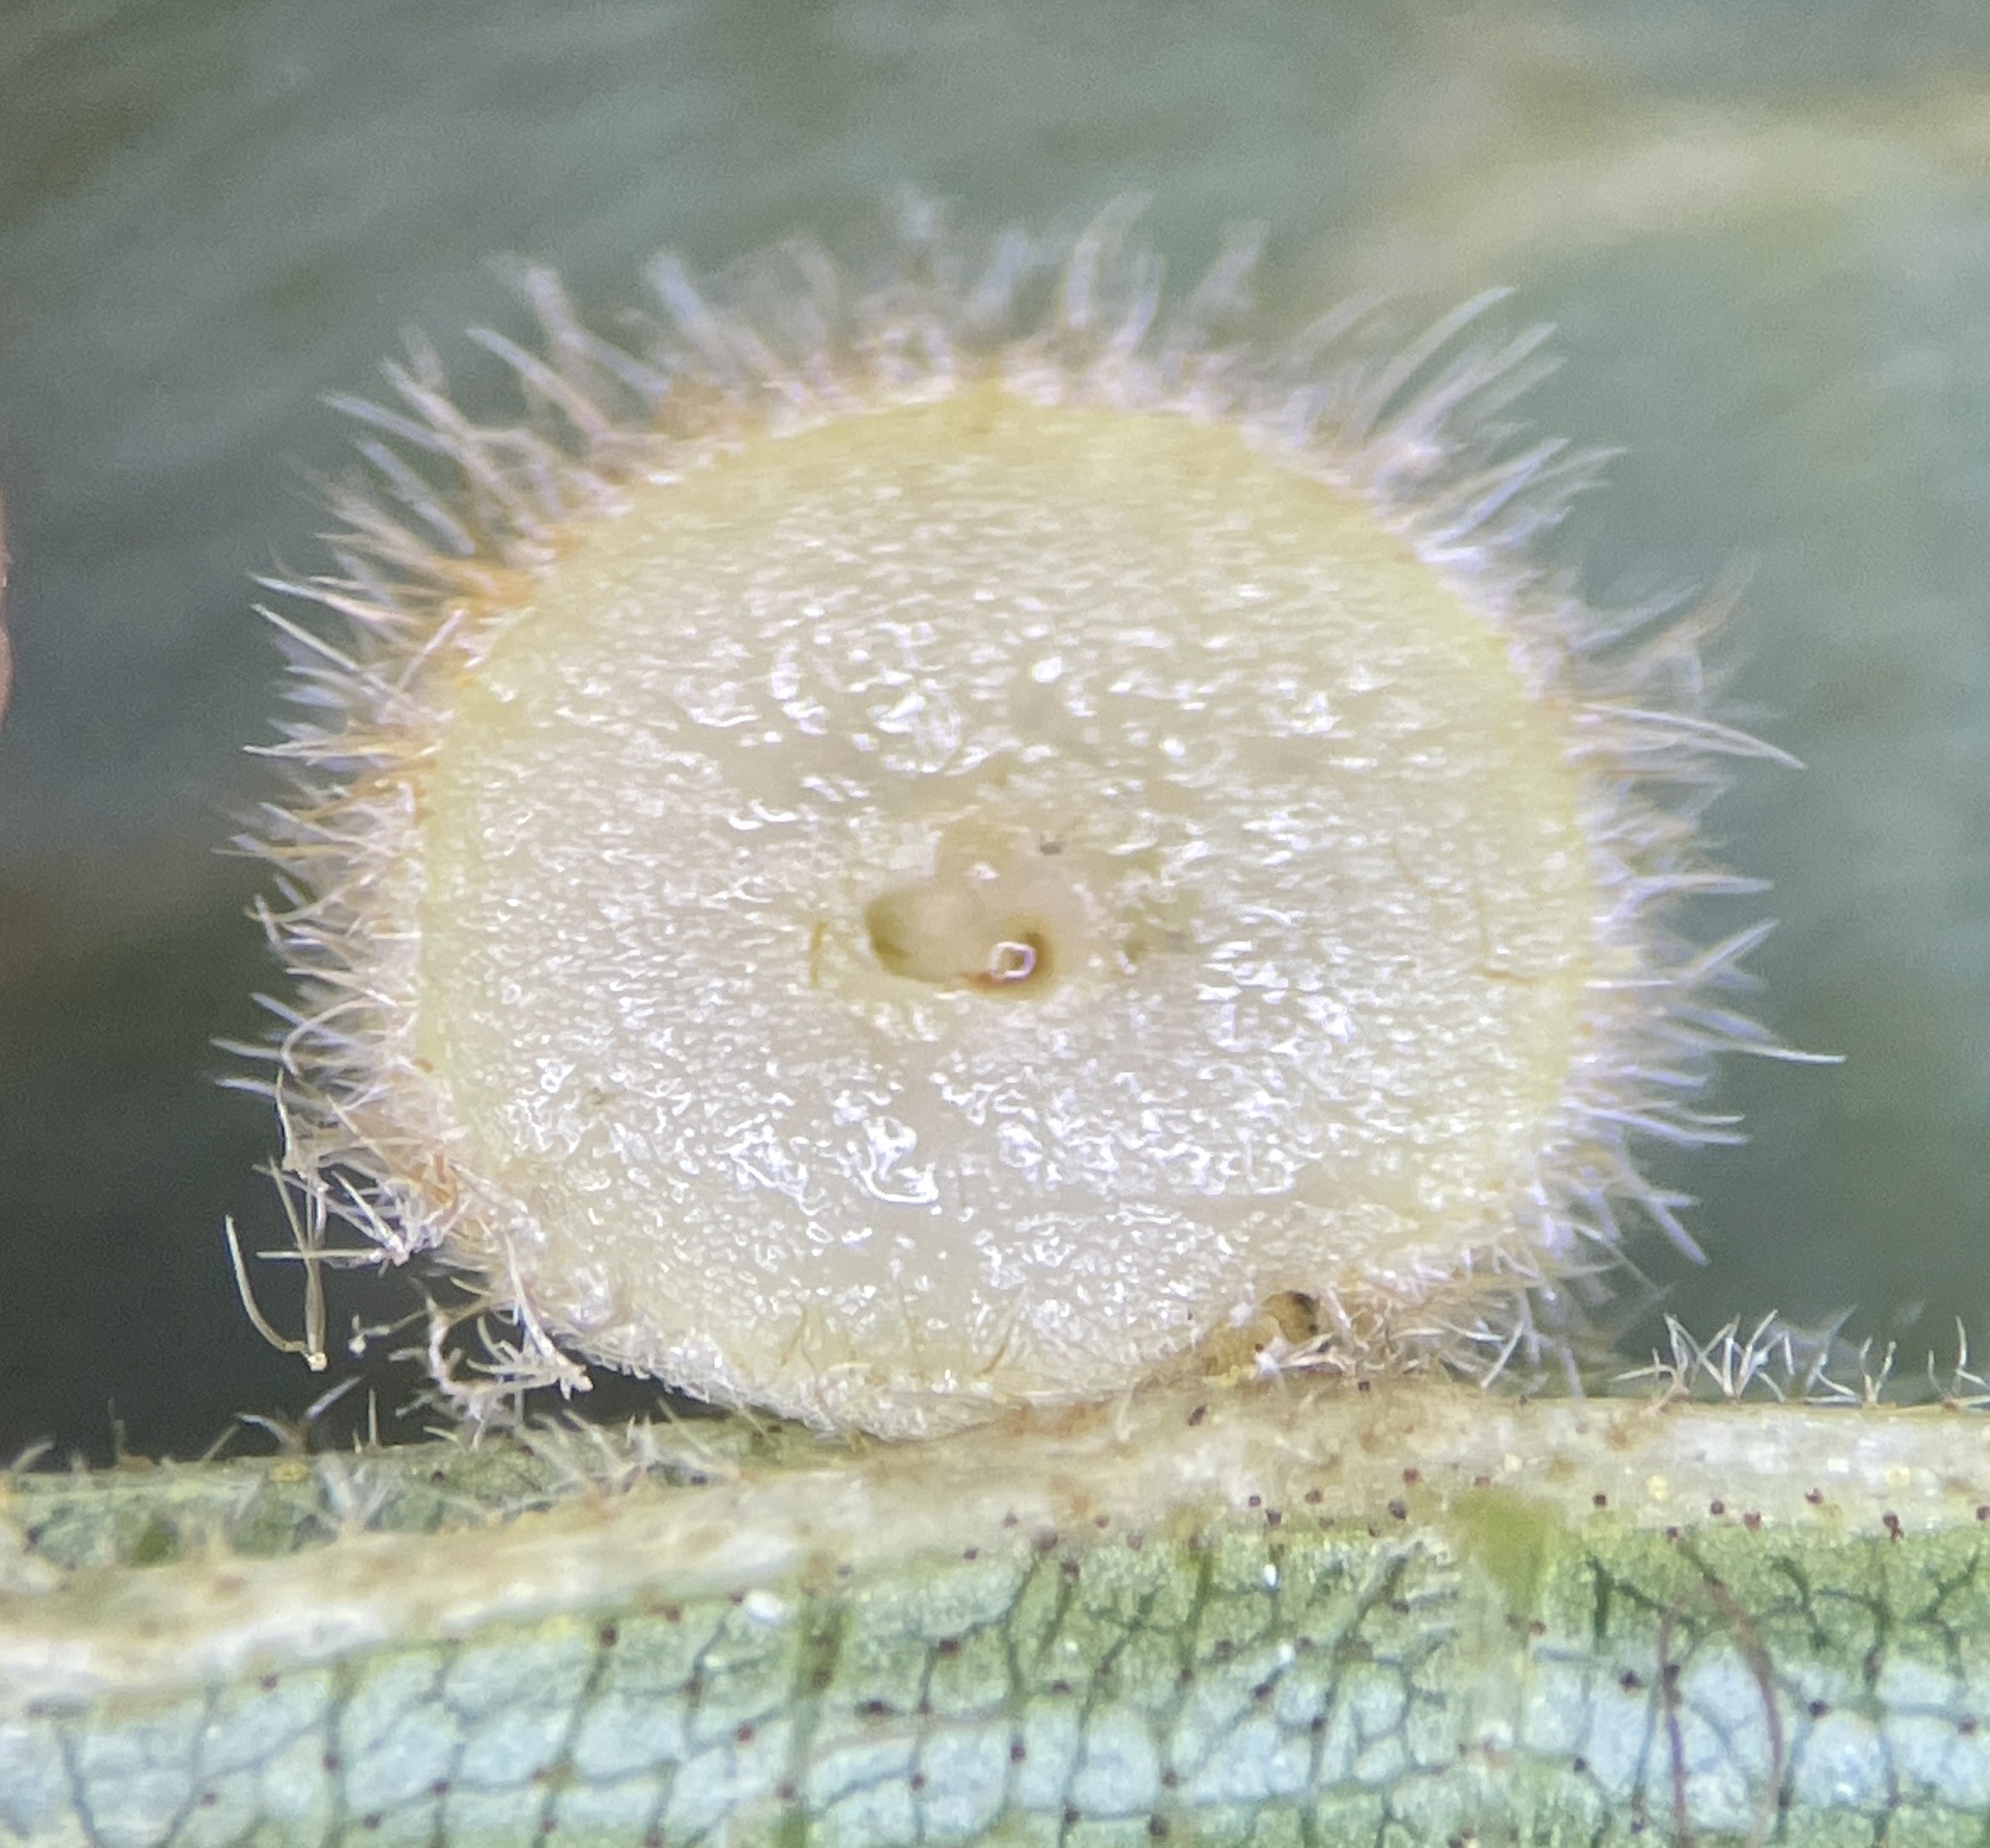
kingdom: Animalia
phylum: Arthropoda
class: Insecta
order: Diptera
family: Cecidomyiidae
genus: Caryomyia
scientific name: Caryomyia spherica
